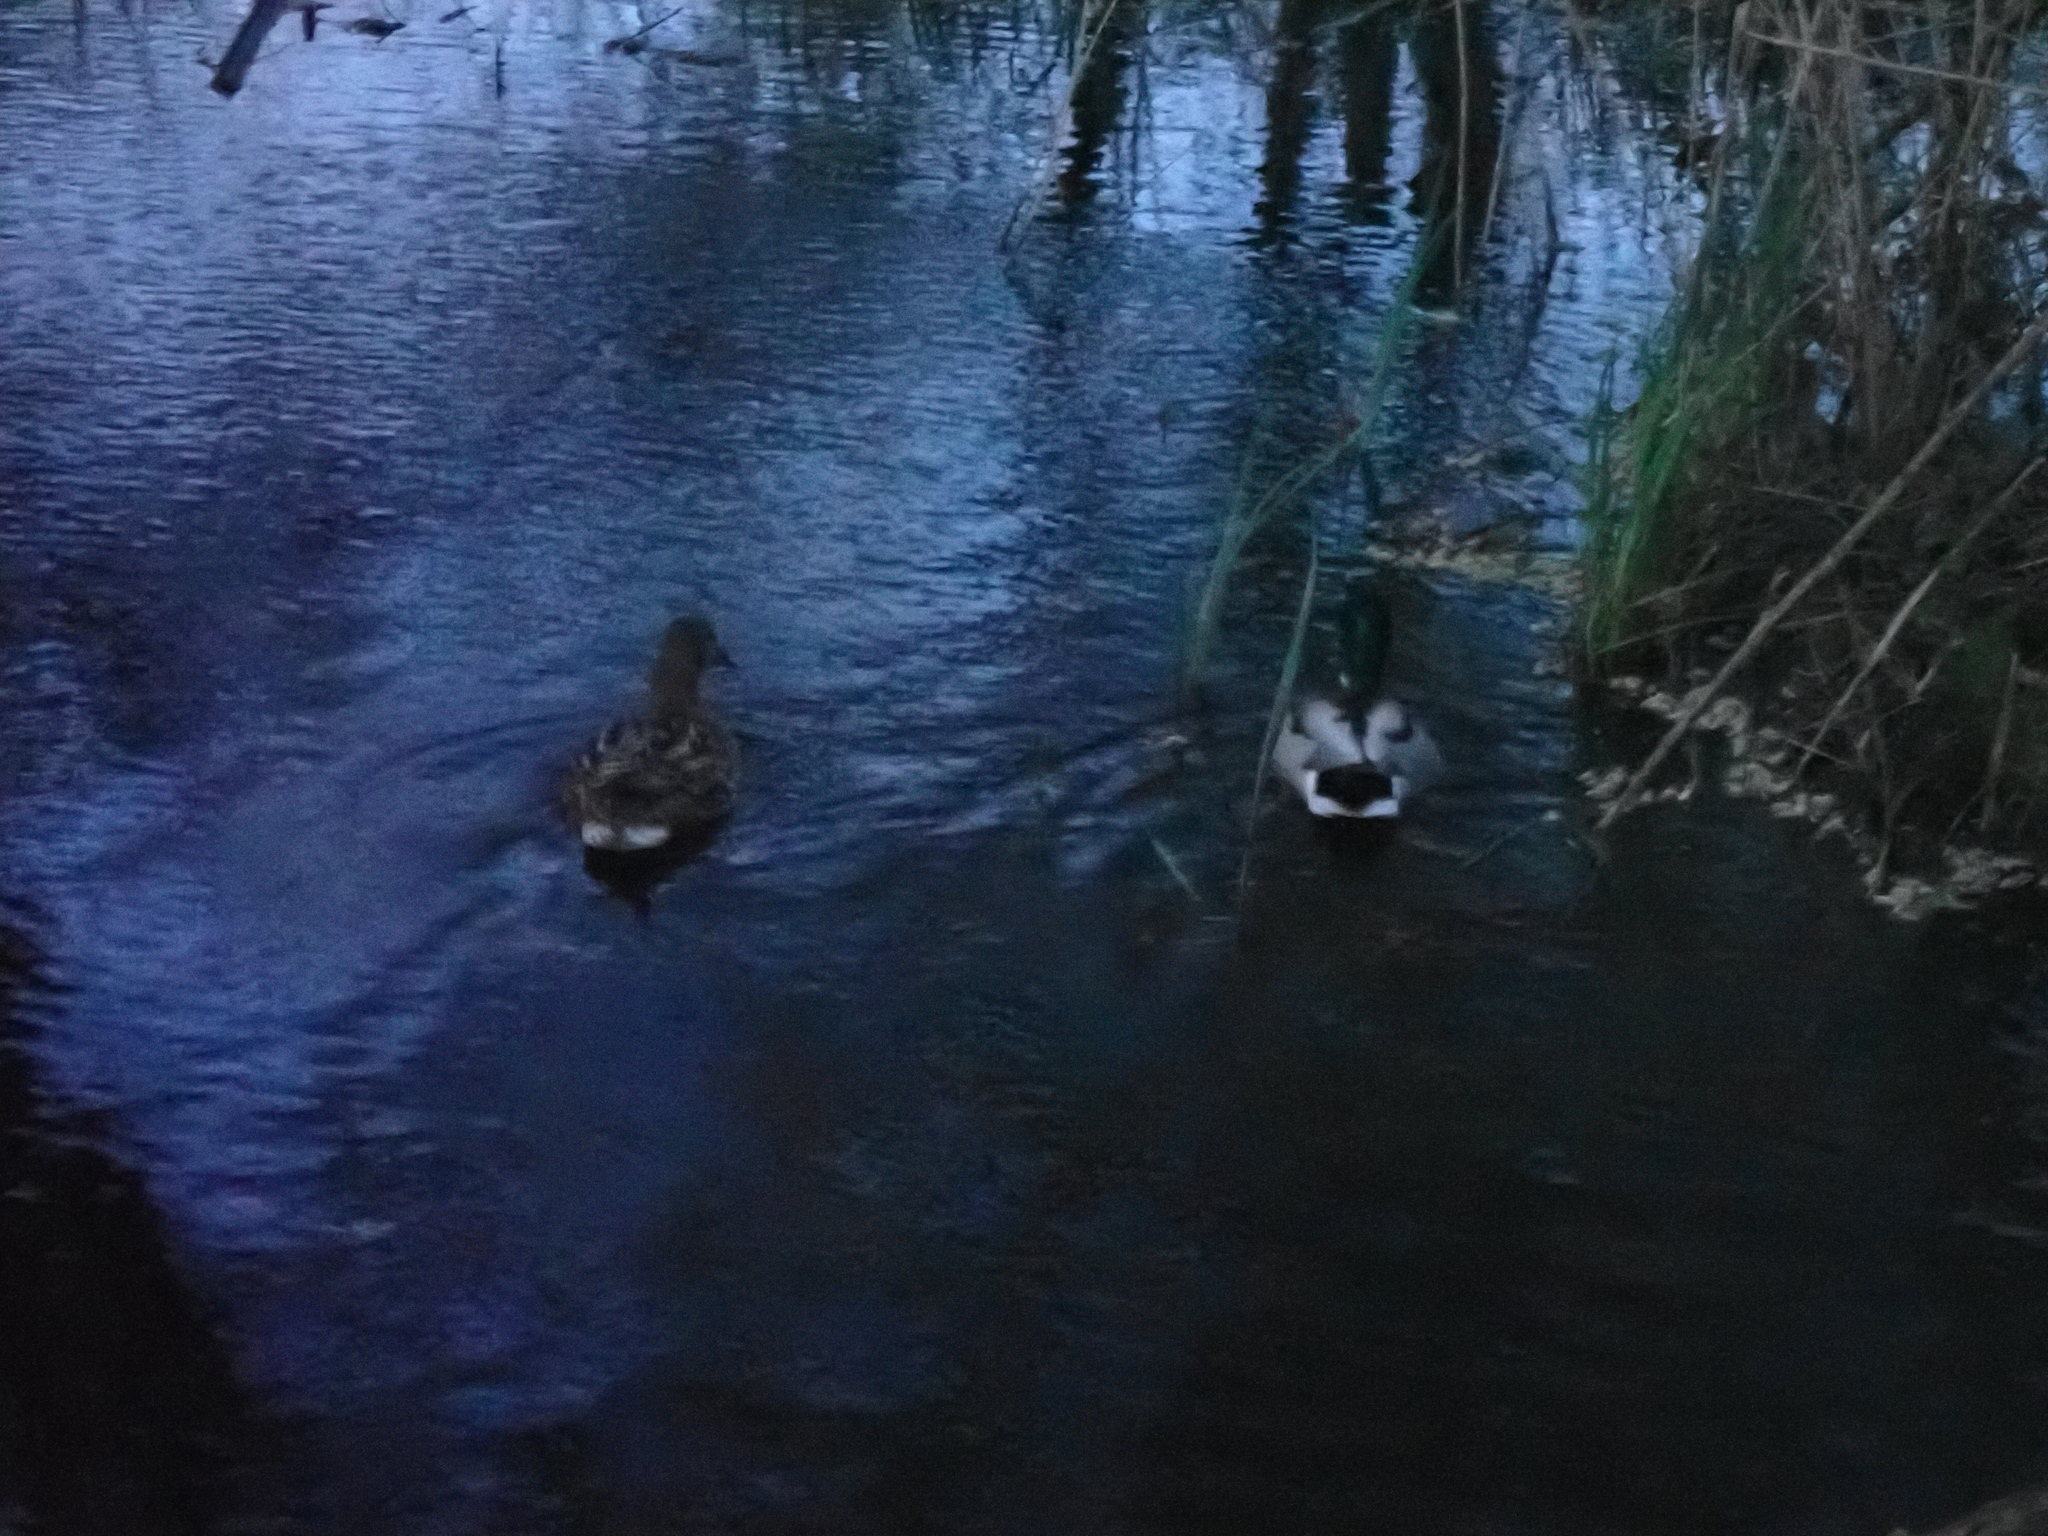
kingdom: Animalia
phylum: Chordata
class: Aves
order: Anseriformes
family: Anatidae
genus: Anas
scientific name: Anas platyrhynchos
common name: Mallard
